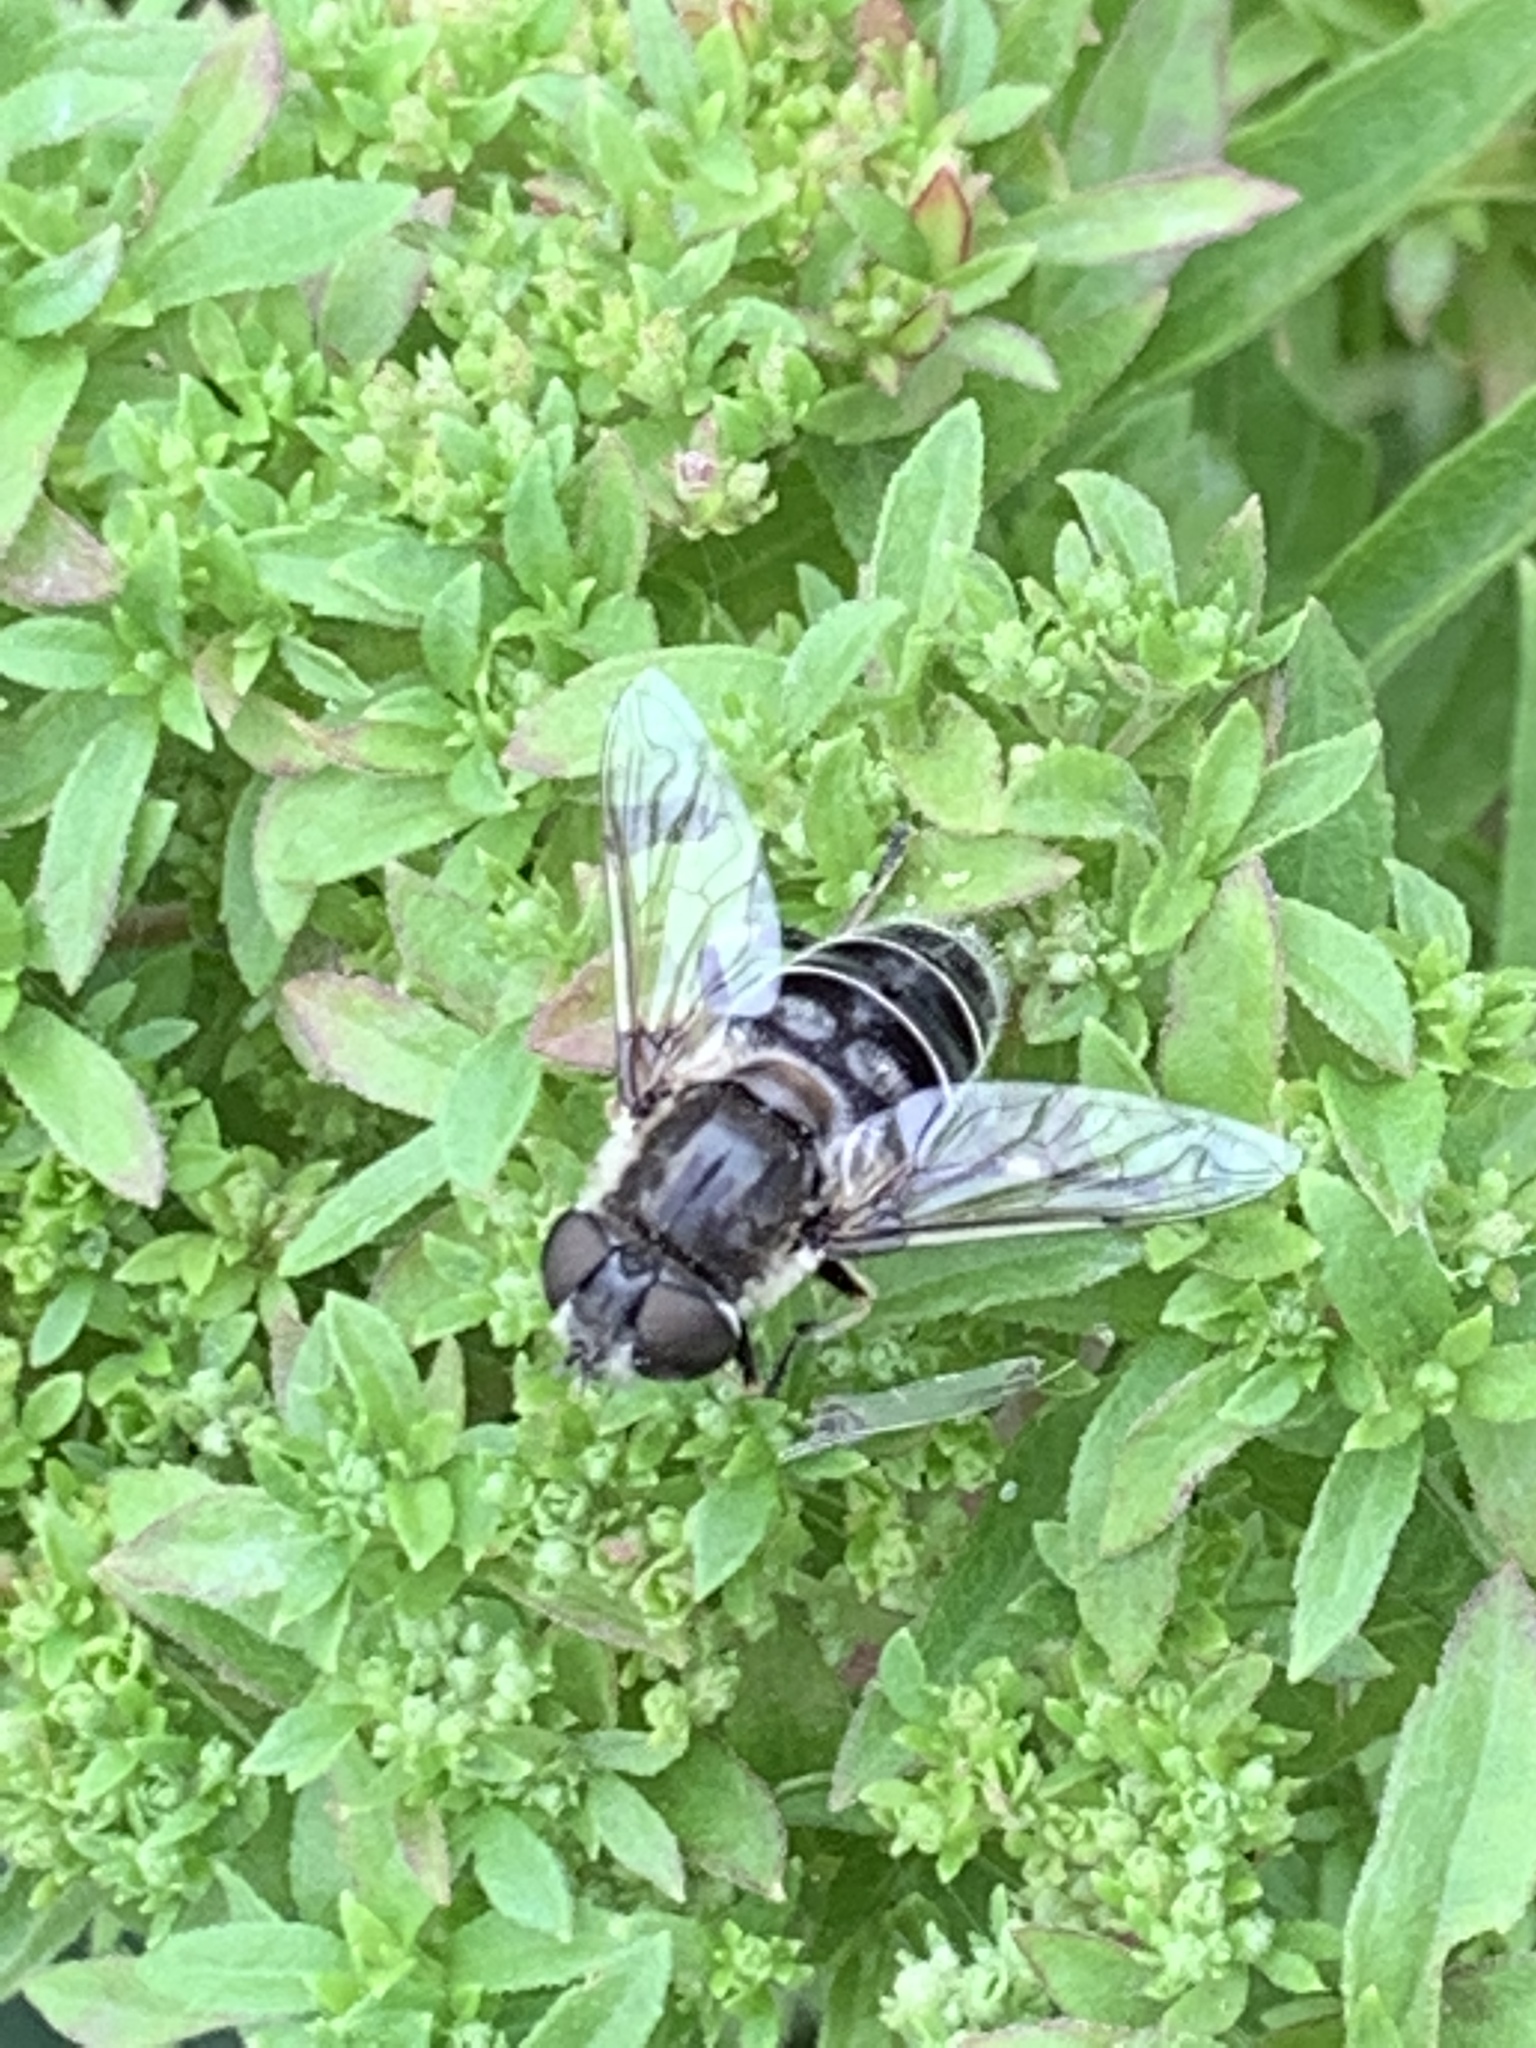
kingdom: Animalia
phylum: Arthropoda
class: Insecta
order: Diptera
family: Syrphidae
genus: Eristalis
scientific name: Eristalis dimidiata
